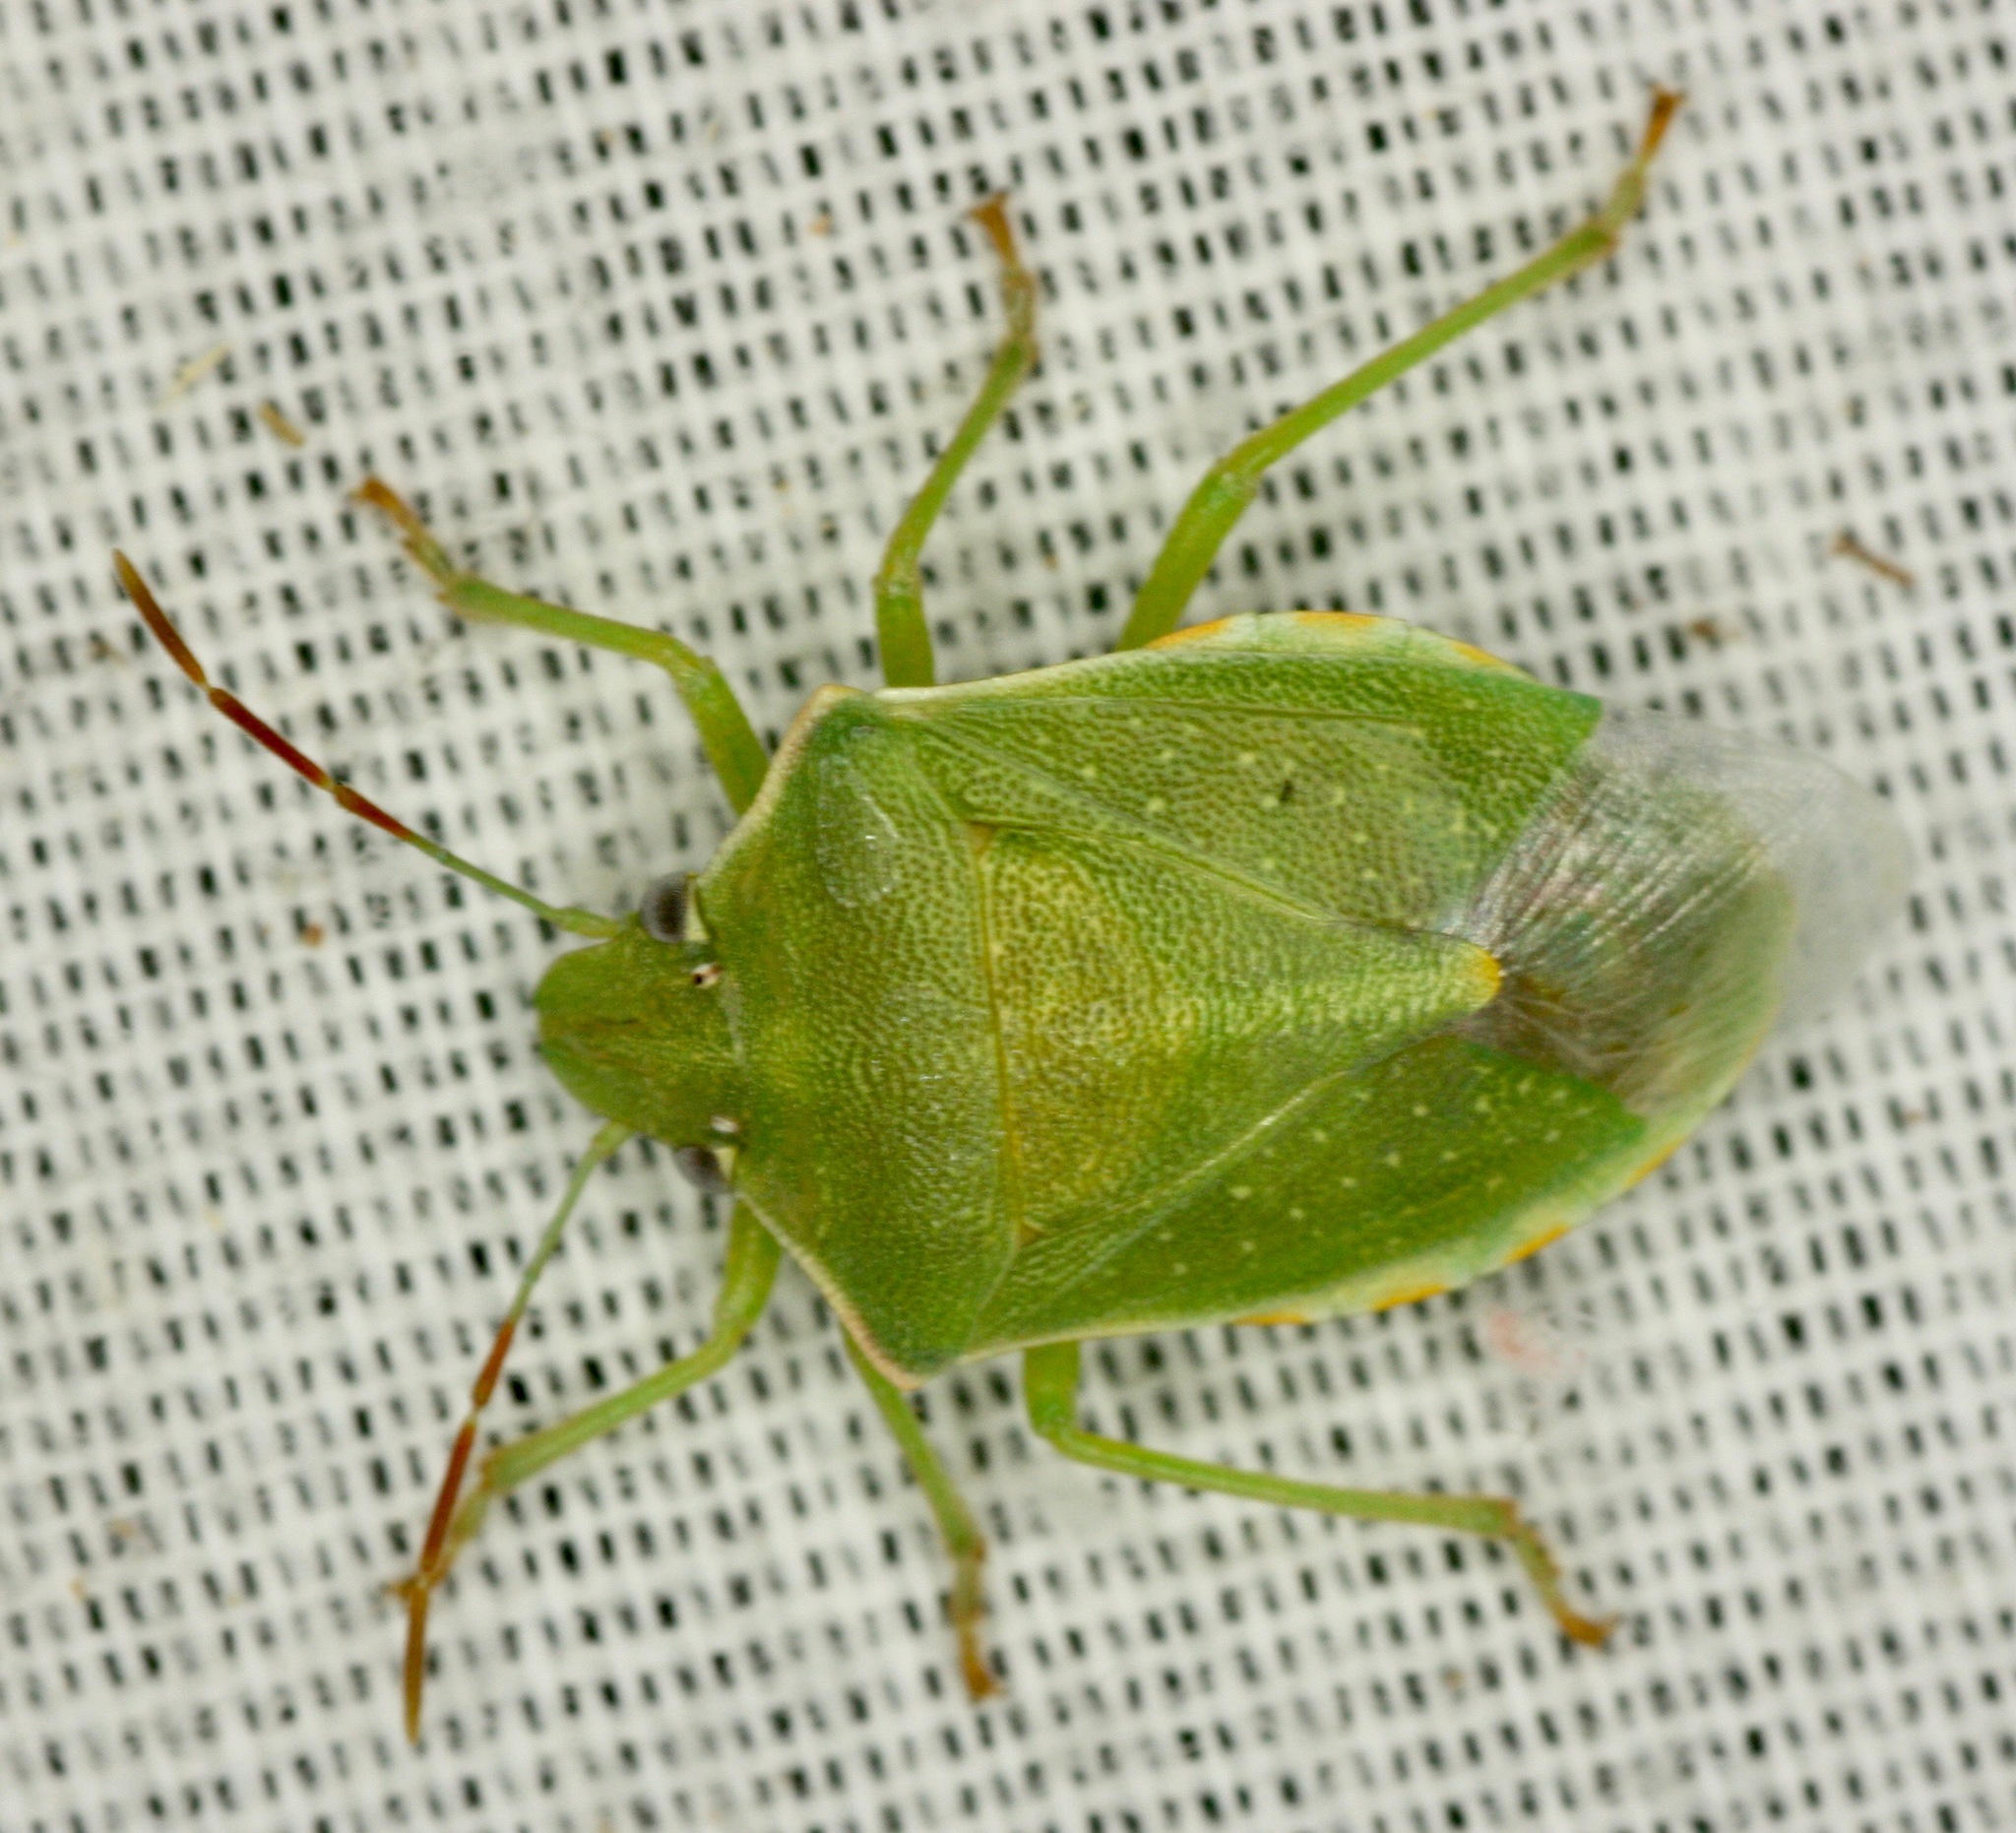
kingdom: Animalia
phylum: Arthropoda
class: Insecta
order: Hemiptera
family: Pentatomidae
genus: Thyanta
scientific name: Thyanta accerra
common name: Stink bug
